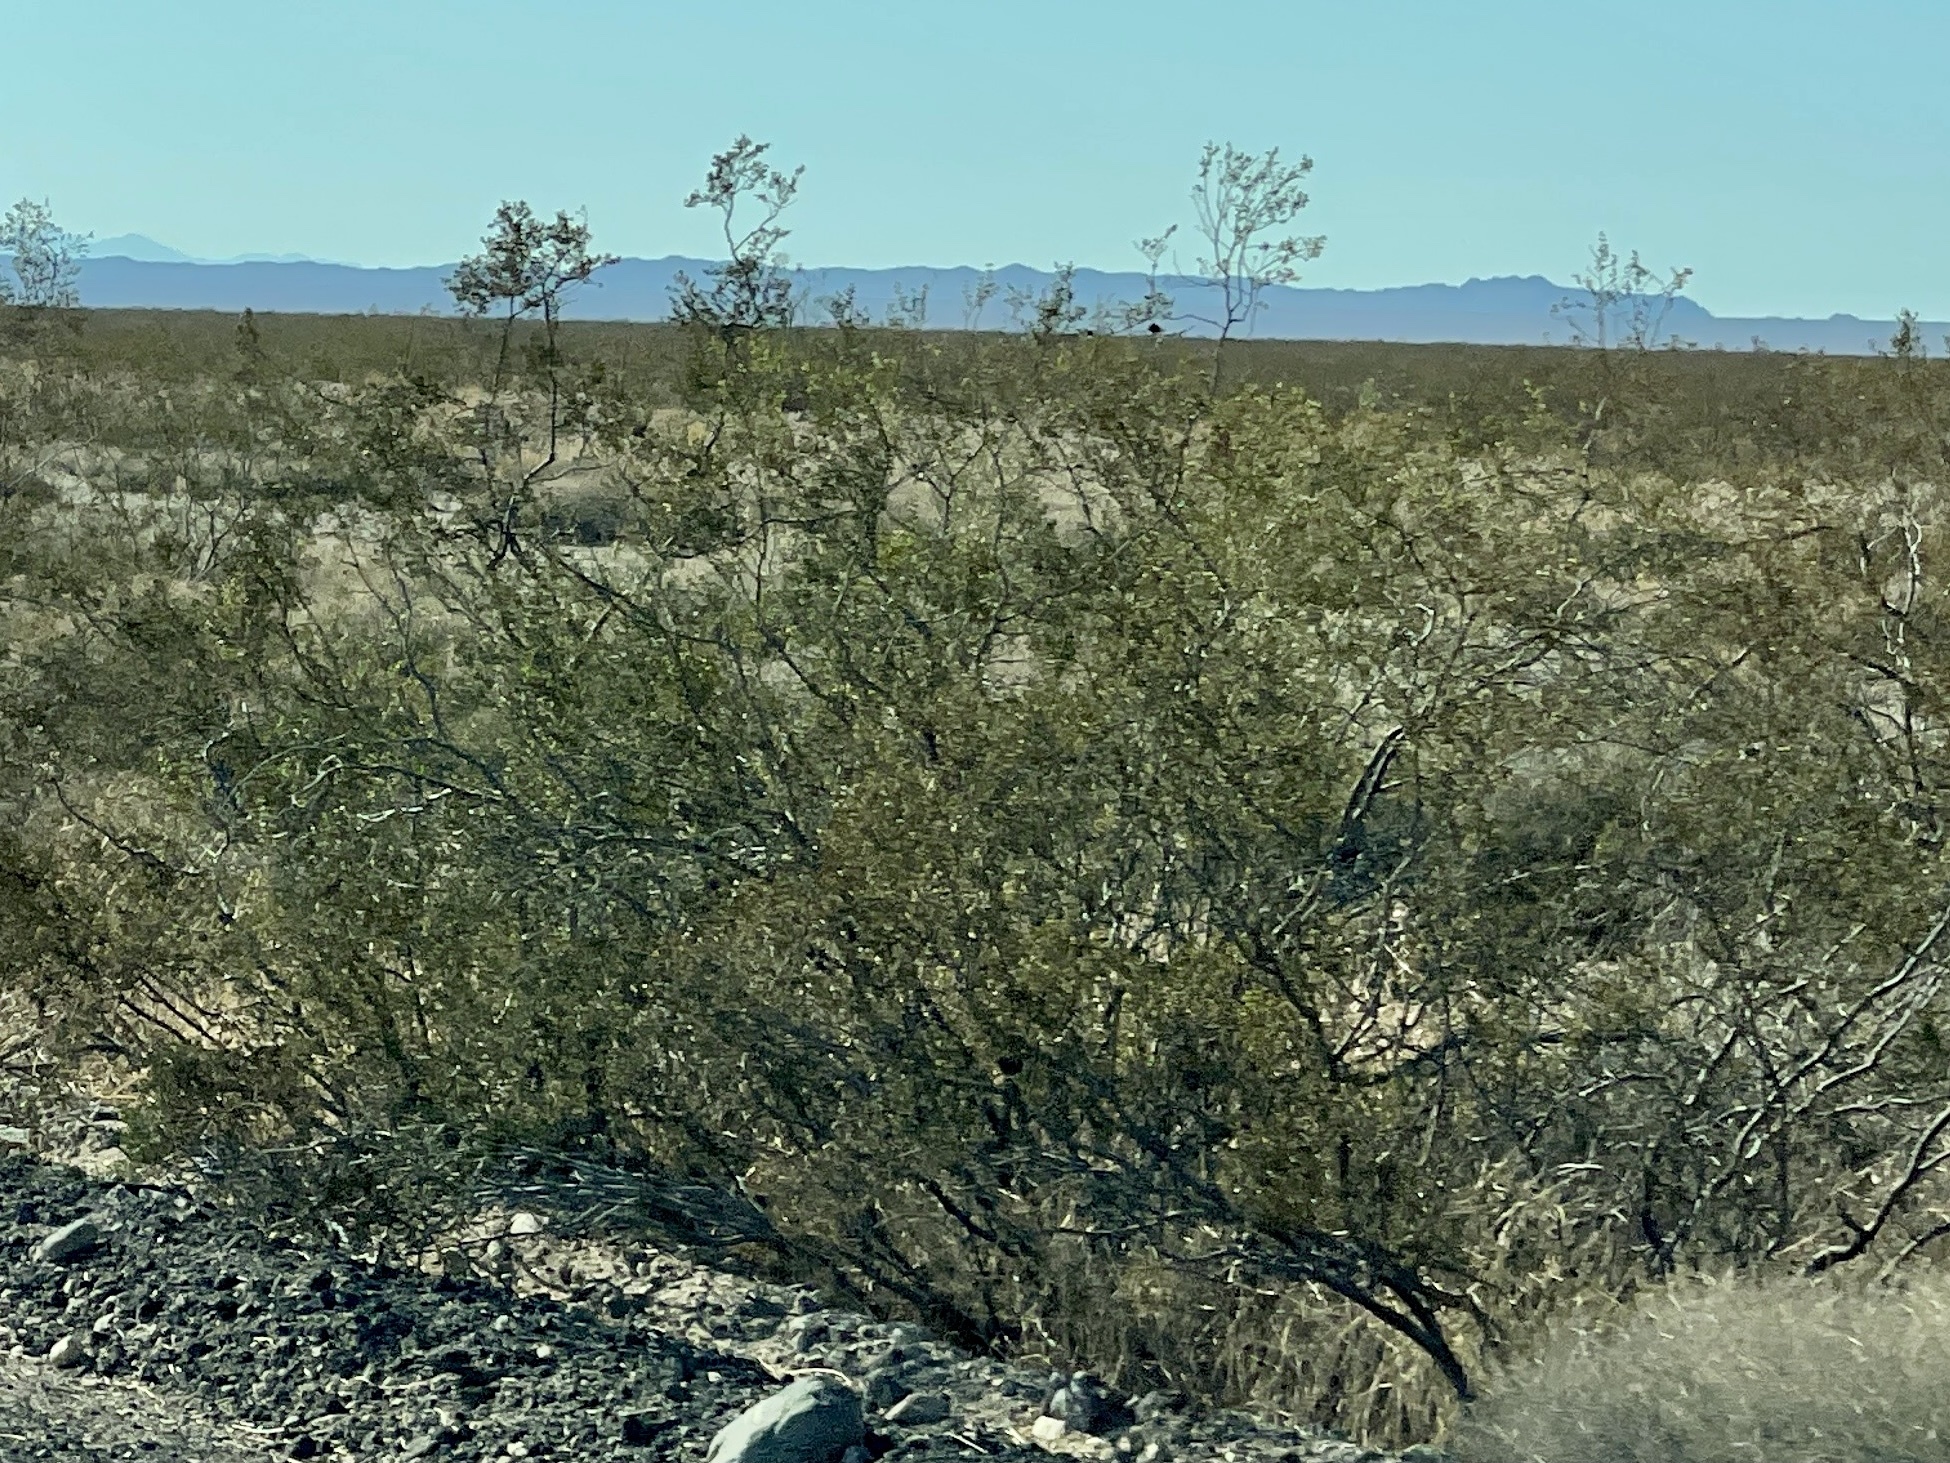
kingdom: Plantae
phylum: Tracheophyta
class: Magnoliopsida
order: Zygophyllales
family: Zygophyllaceae
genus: Larrea
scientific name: Larrea tridentata
